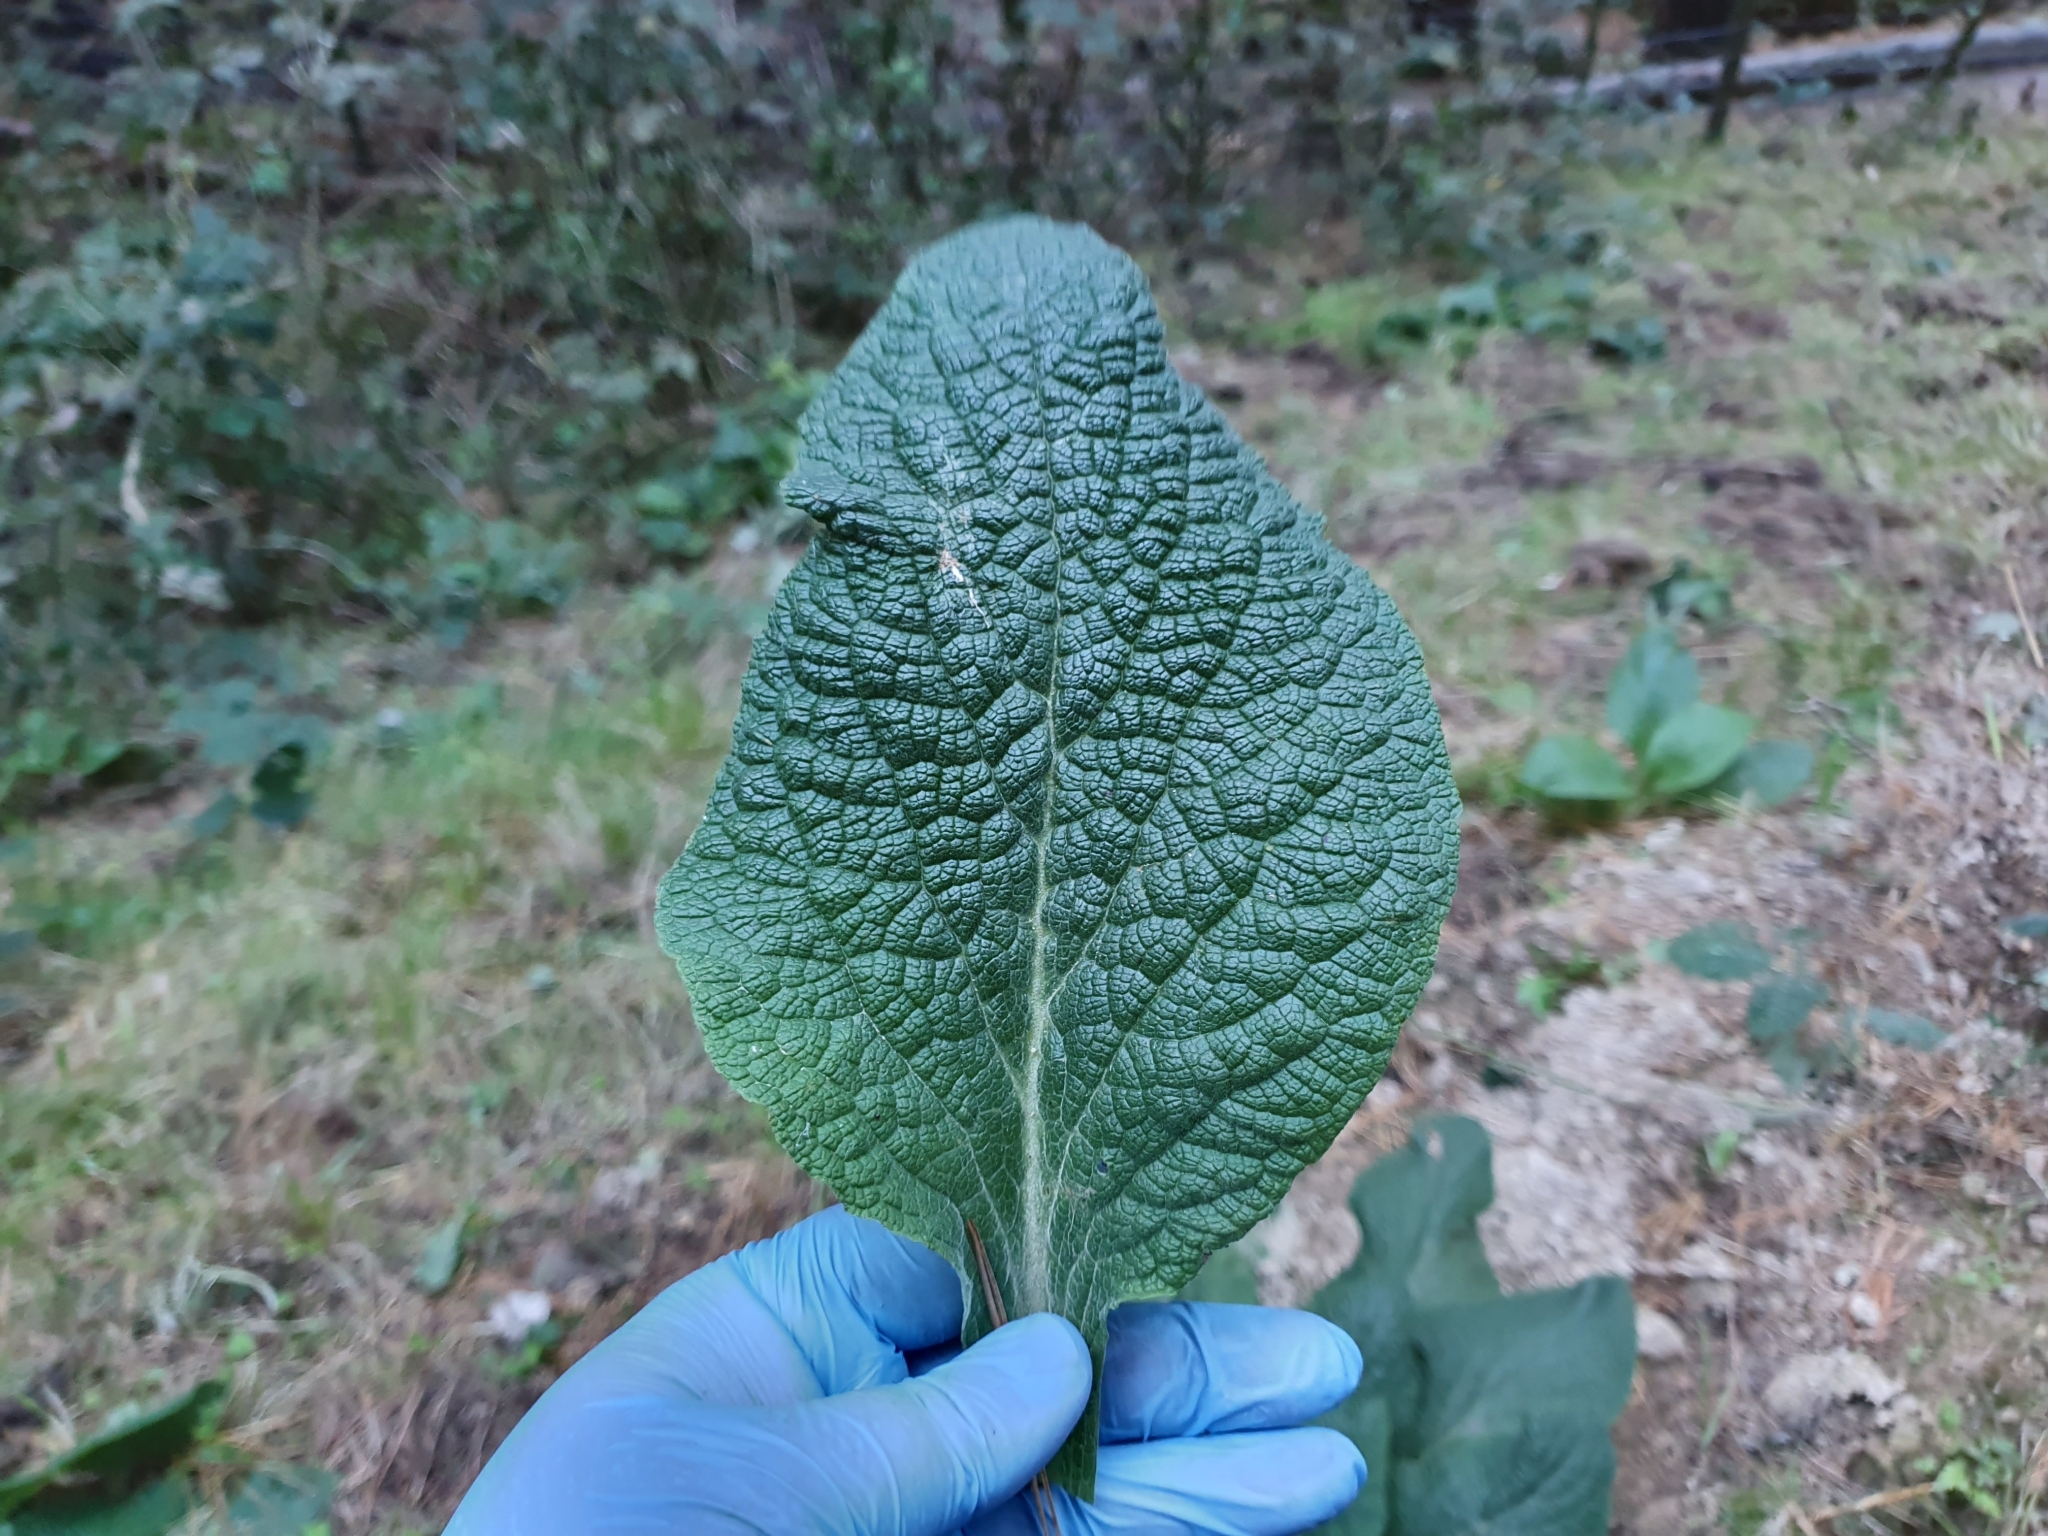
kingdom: Plantae
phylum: Tracheophyta
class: Magnoliopsida
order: Lamiales
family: Plantaginaceae
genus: Digitalis
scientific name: Digitalis purpurea
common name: Foxglove
